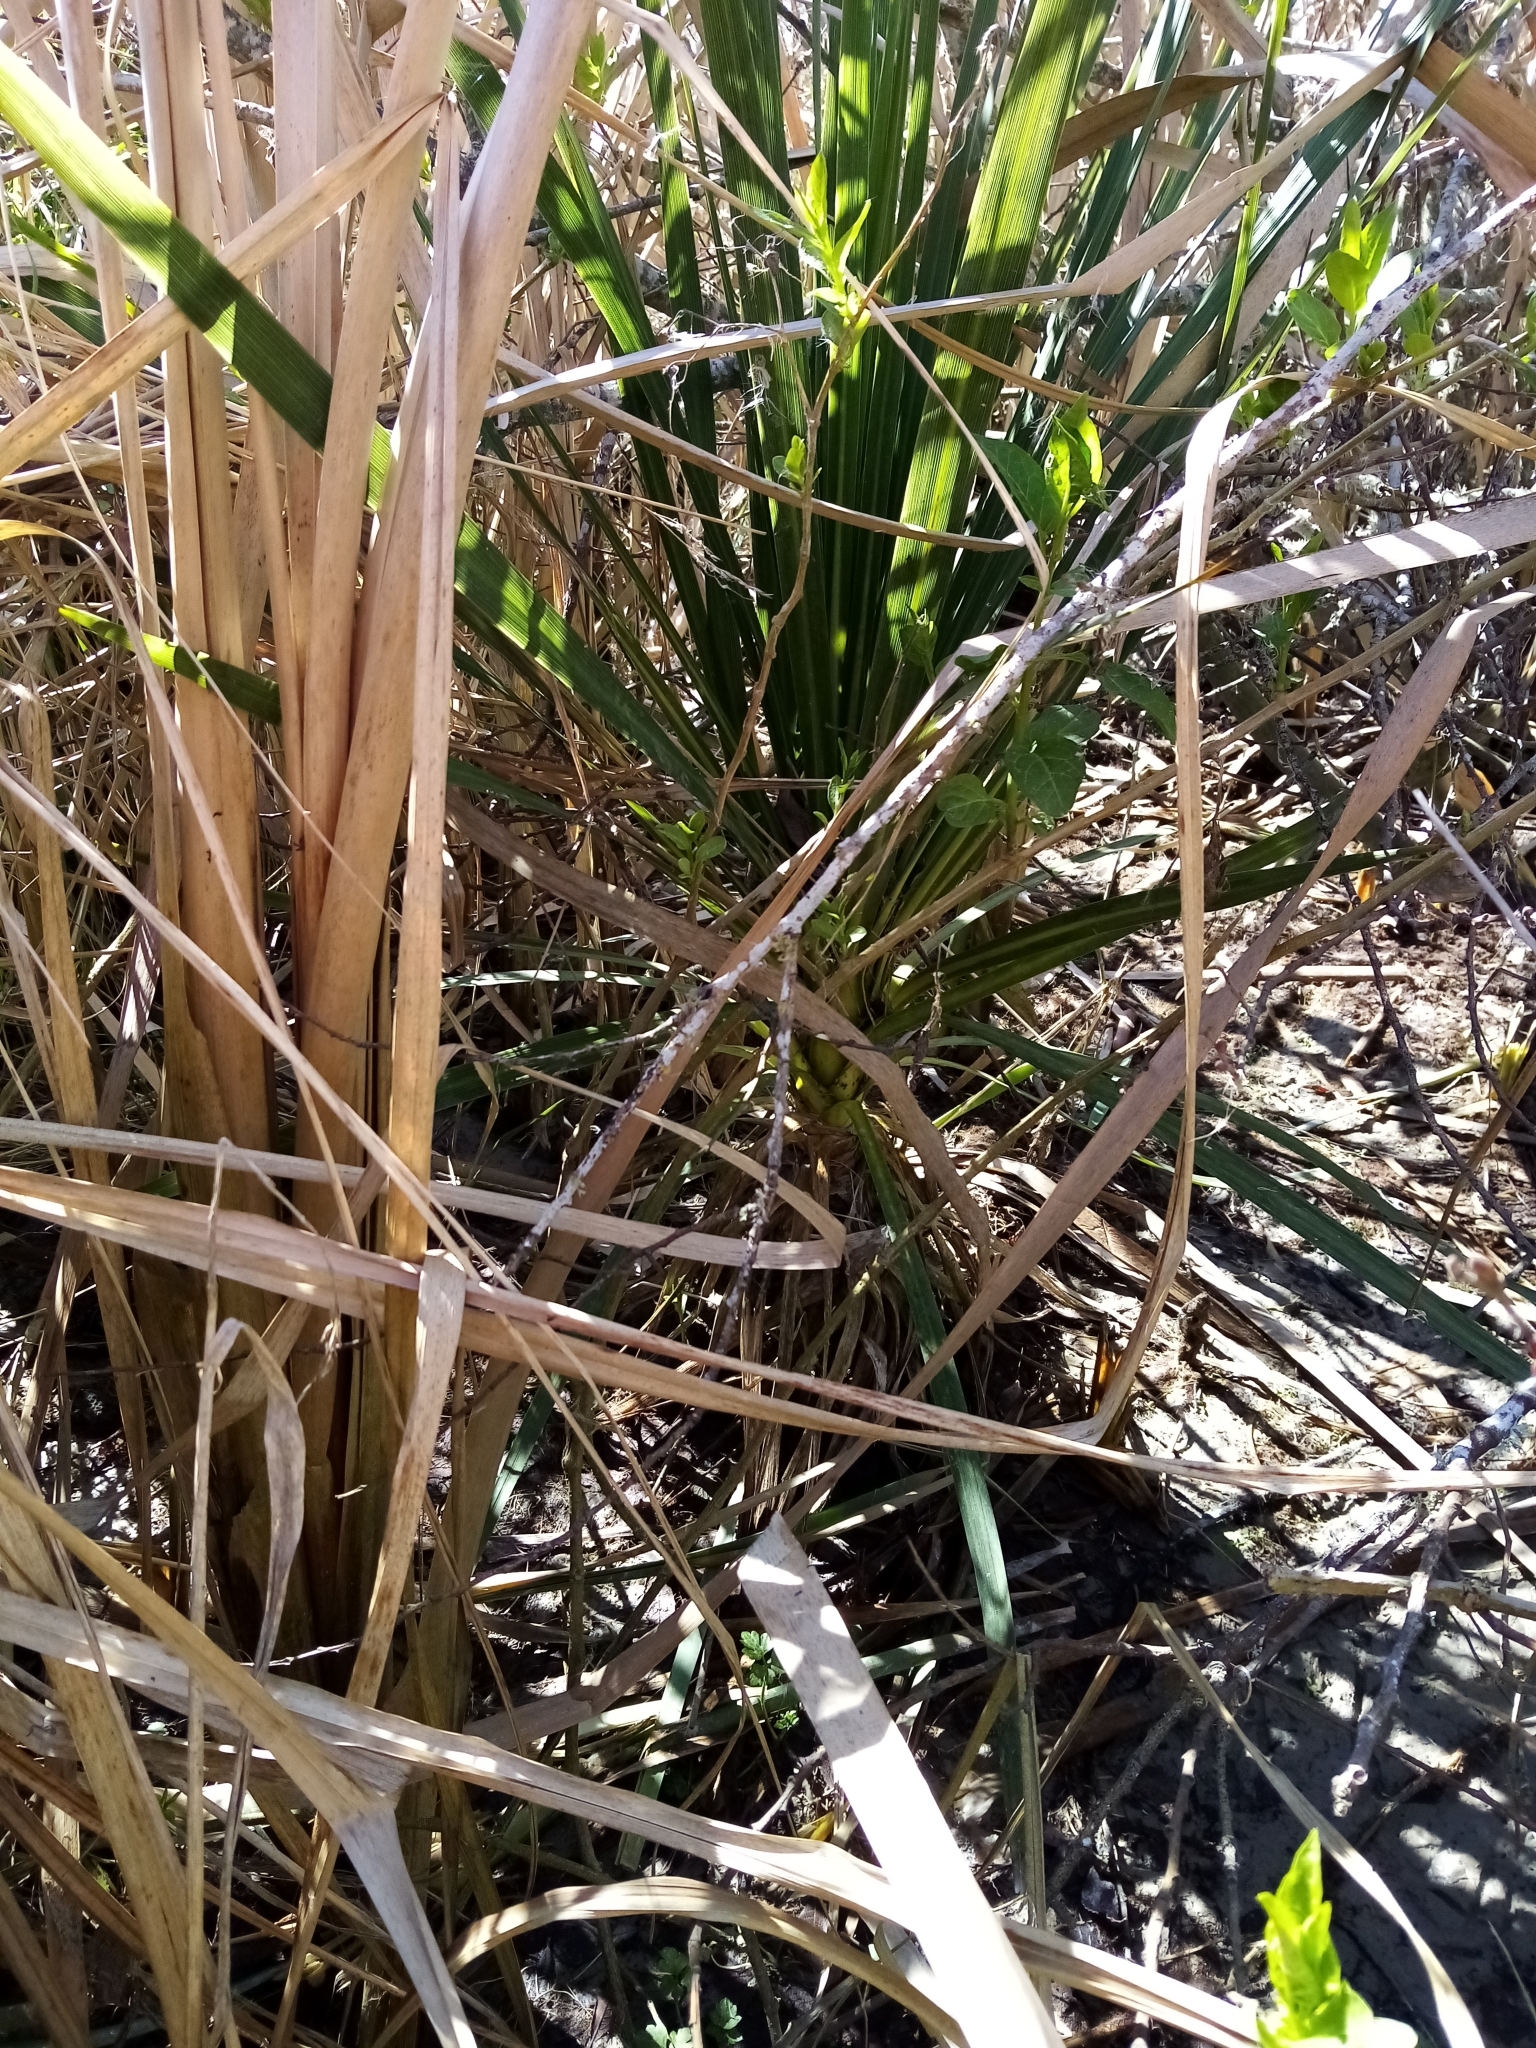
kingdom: Plantae
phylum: Tracheophyta
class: Liliopsida
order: Asparagales
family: Asparagaceae
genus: Cordyline
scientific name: Cordyline australis
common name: Cabbage-palm
